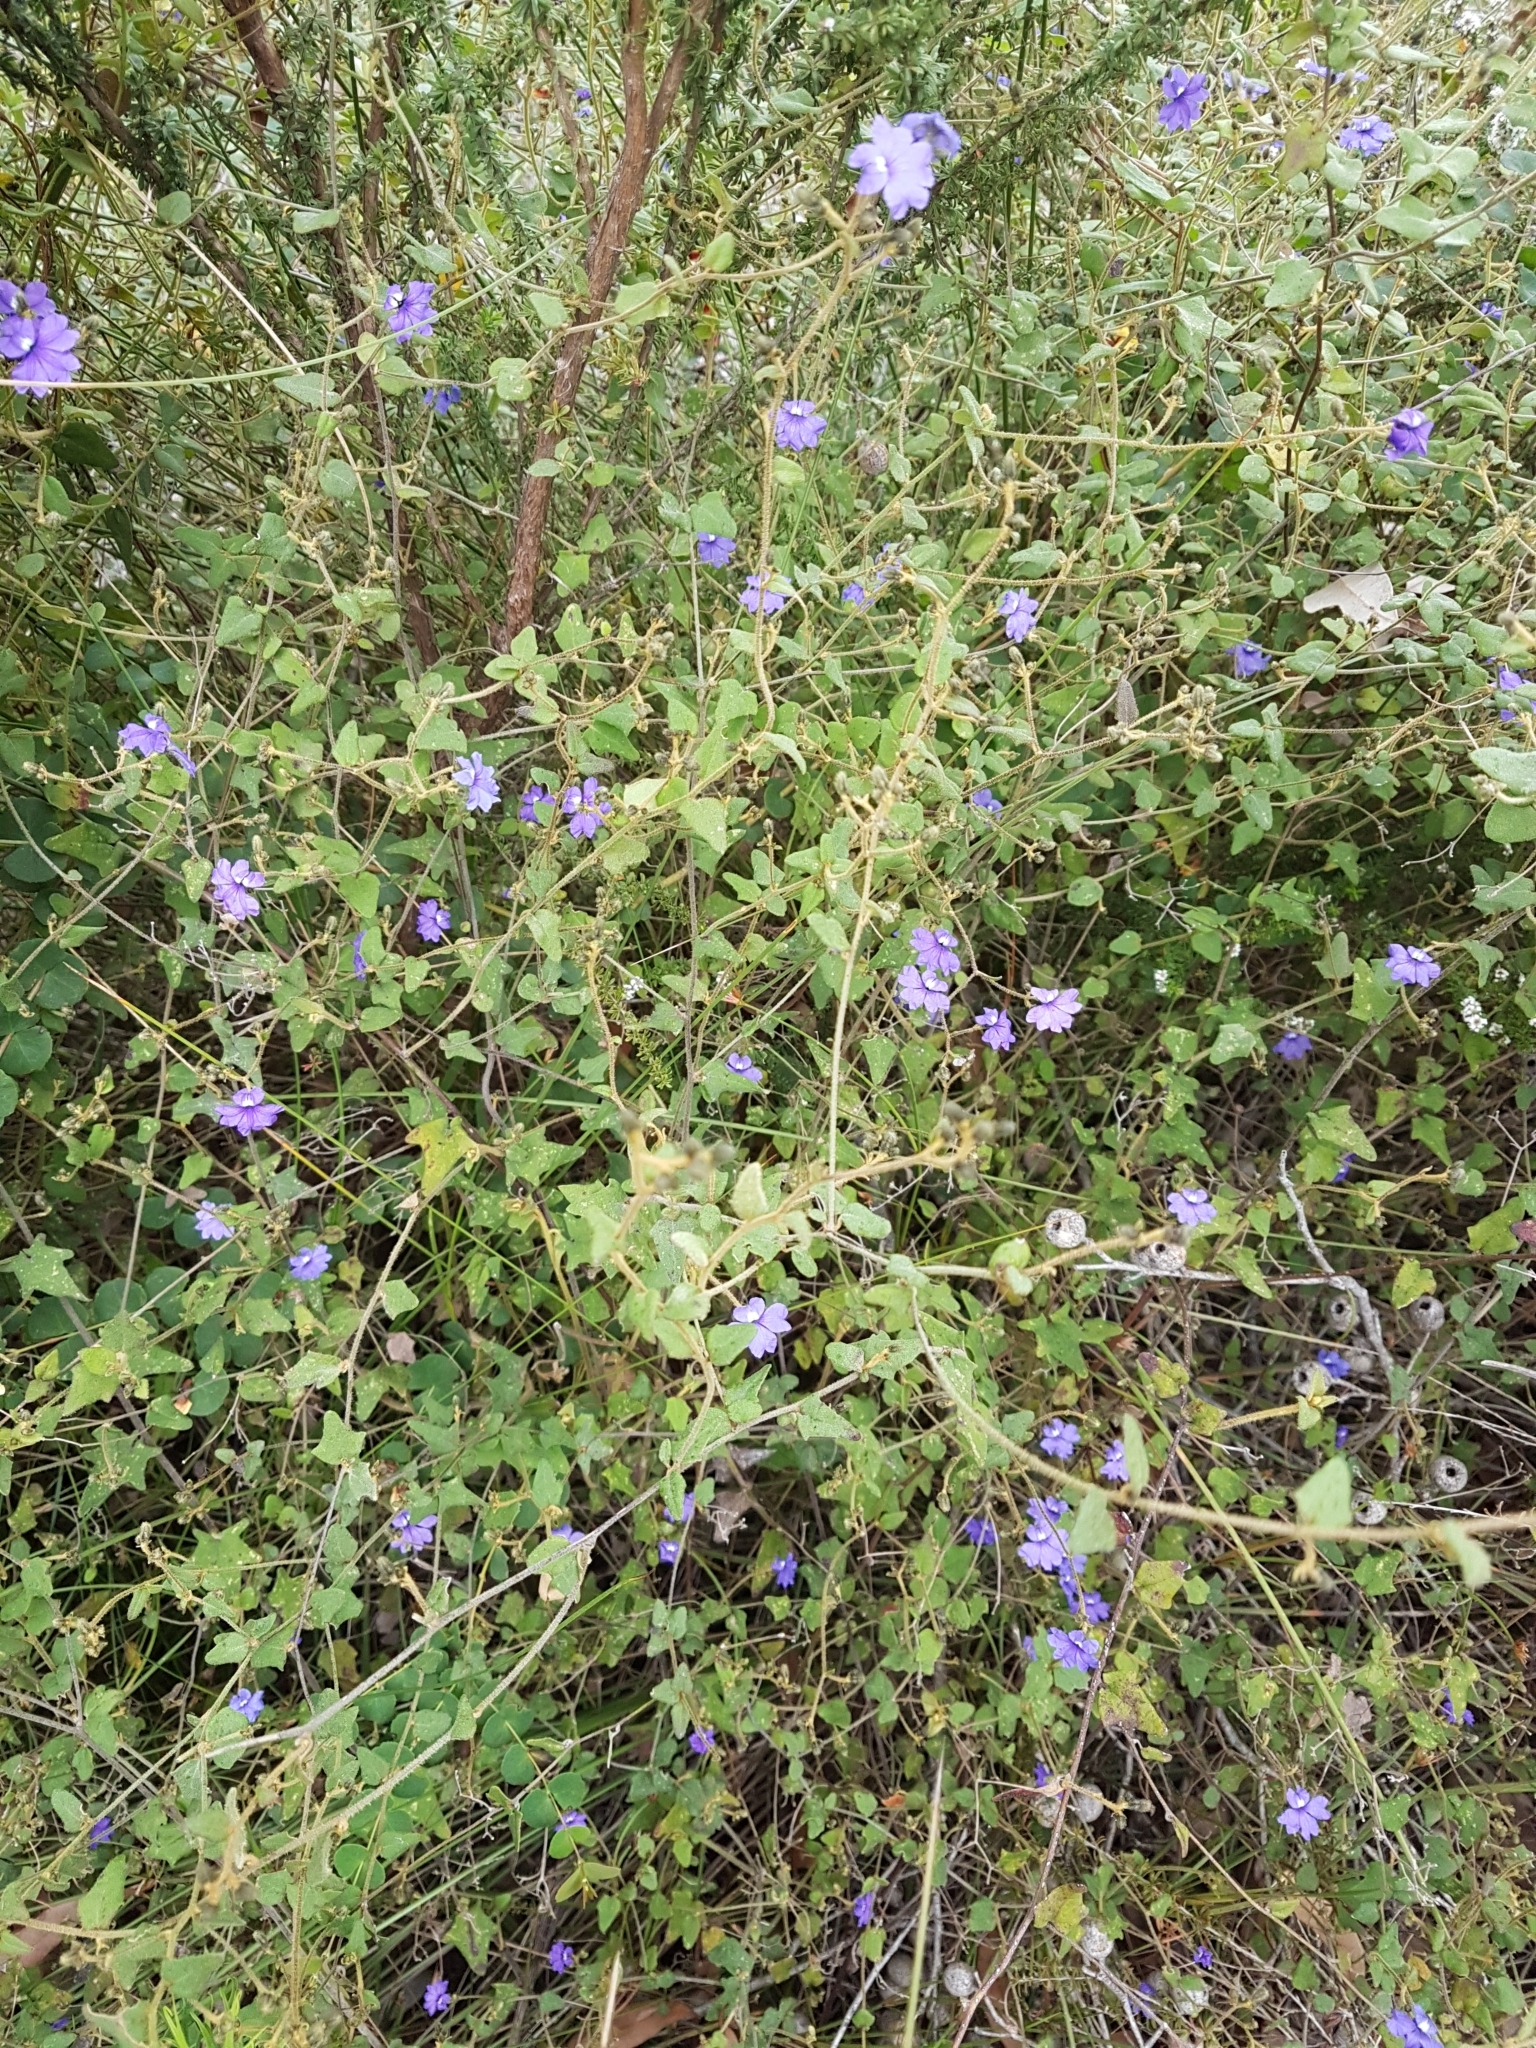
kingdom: Plantae
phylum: Tracheophyta
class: Magnoliopsida
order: Asterales
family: Goodeniaceae
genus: Dampiera
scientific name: Dampiera hederacea
